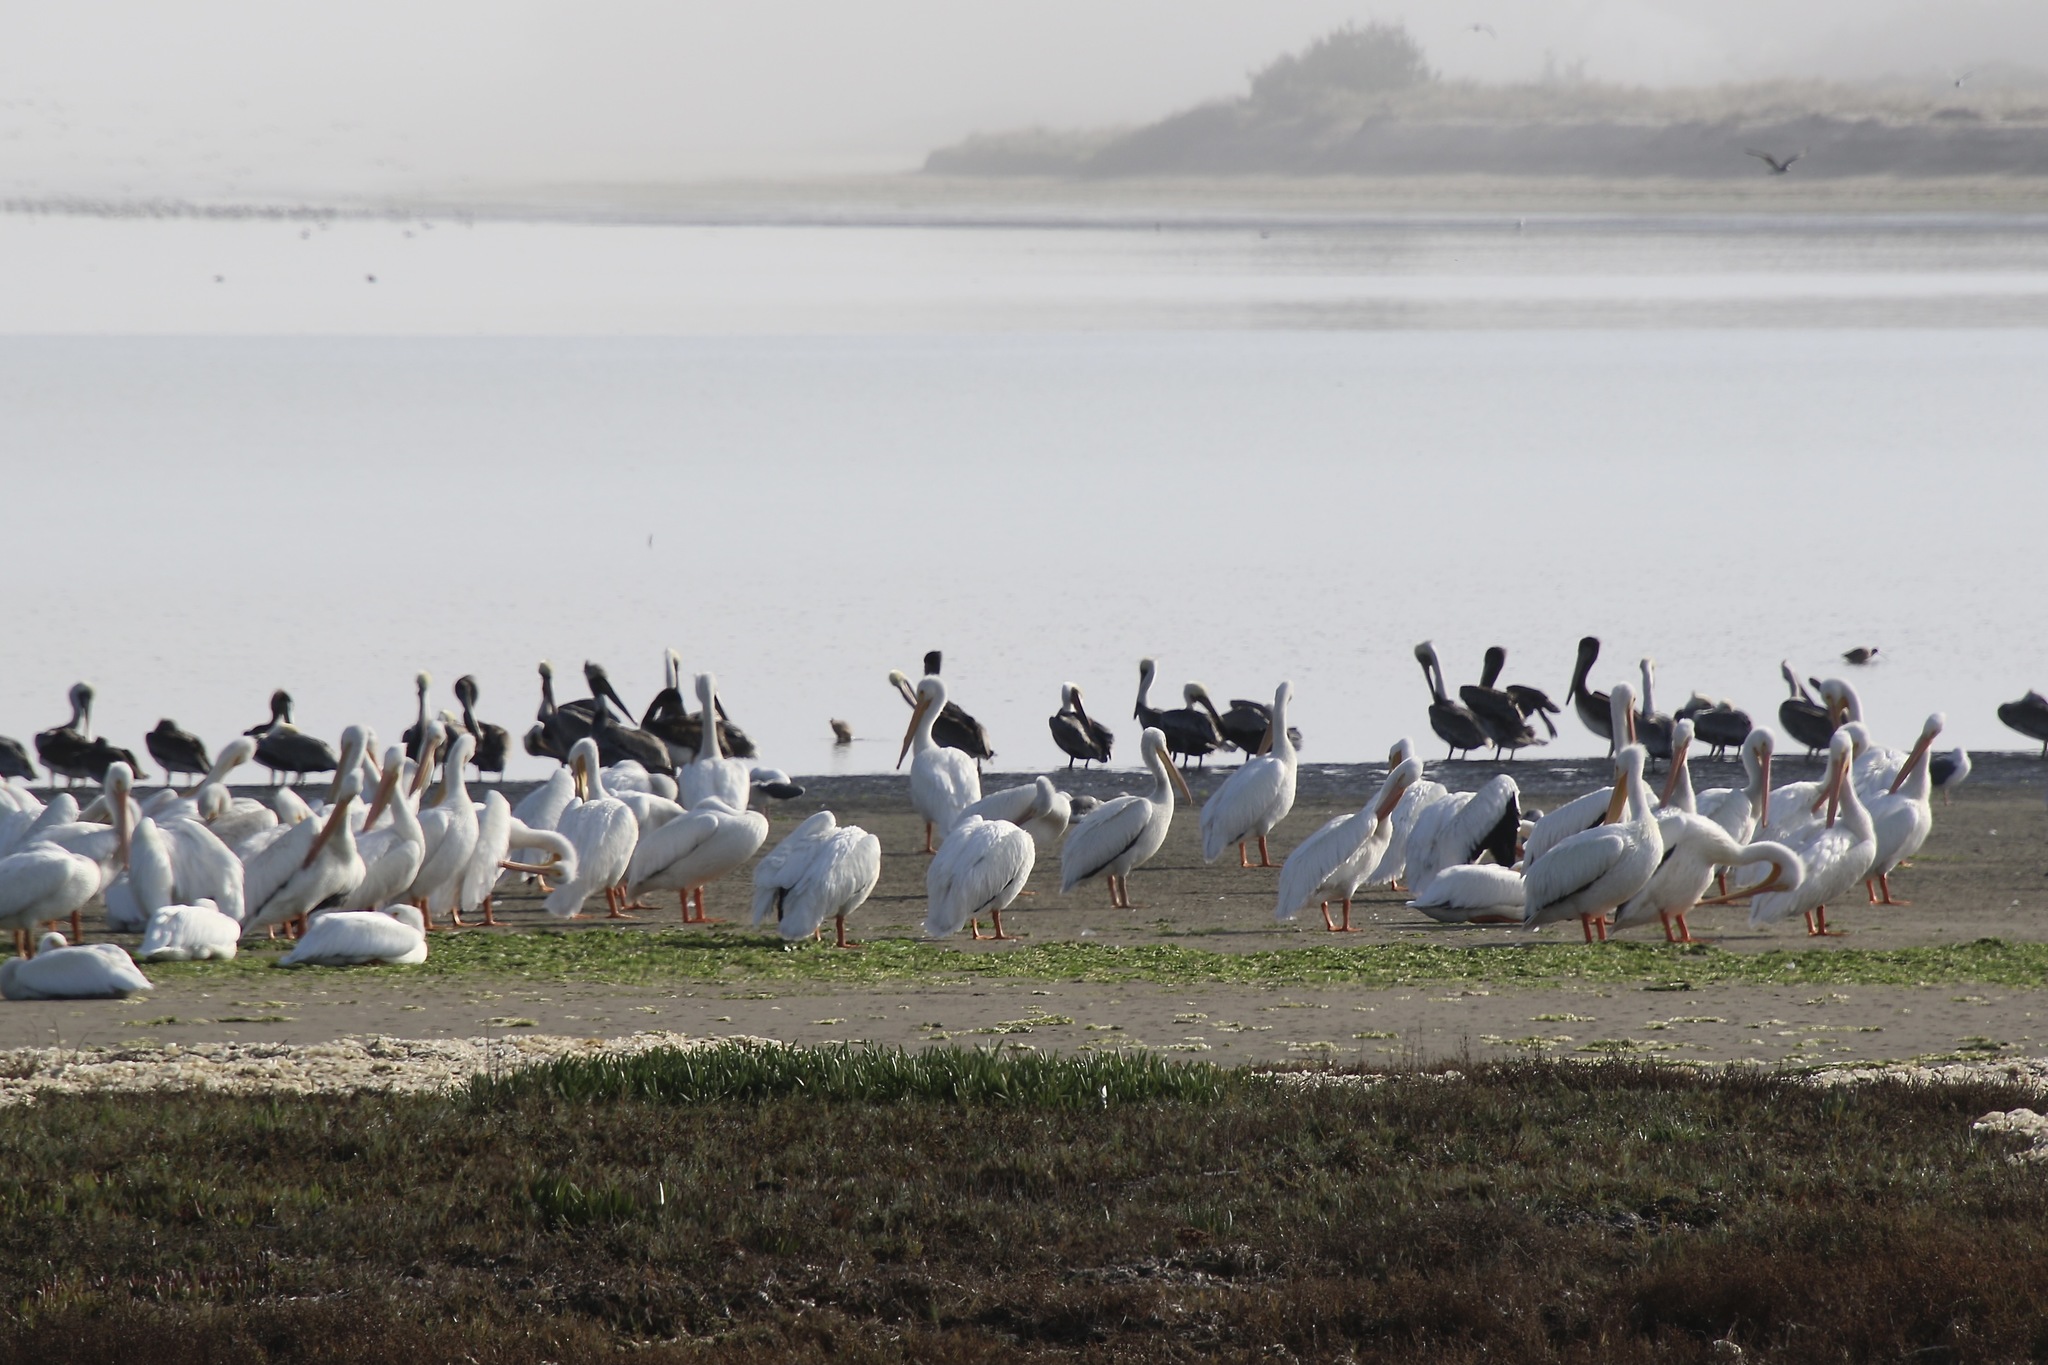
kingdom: Animalia
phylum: Chordata
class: Aves
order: Pelecaniformes
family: Pelecanidae
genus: Pelecanus
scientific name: Pelecanus erythrorhynchos
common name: American white pelican
